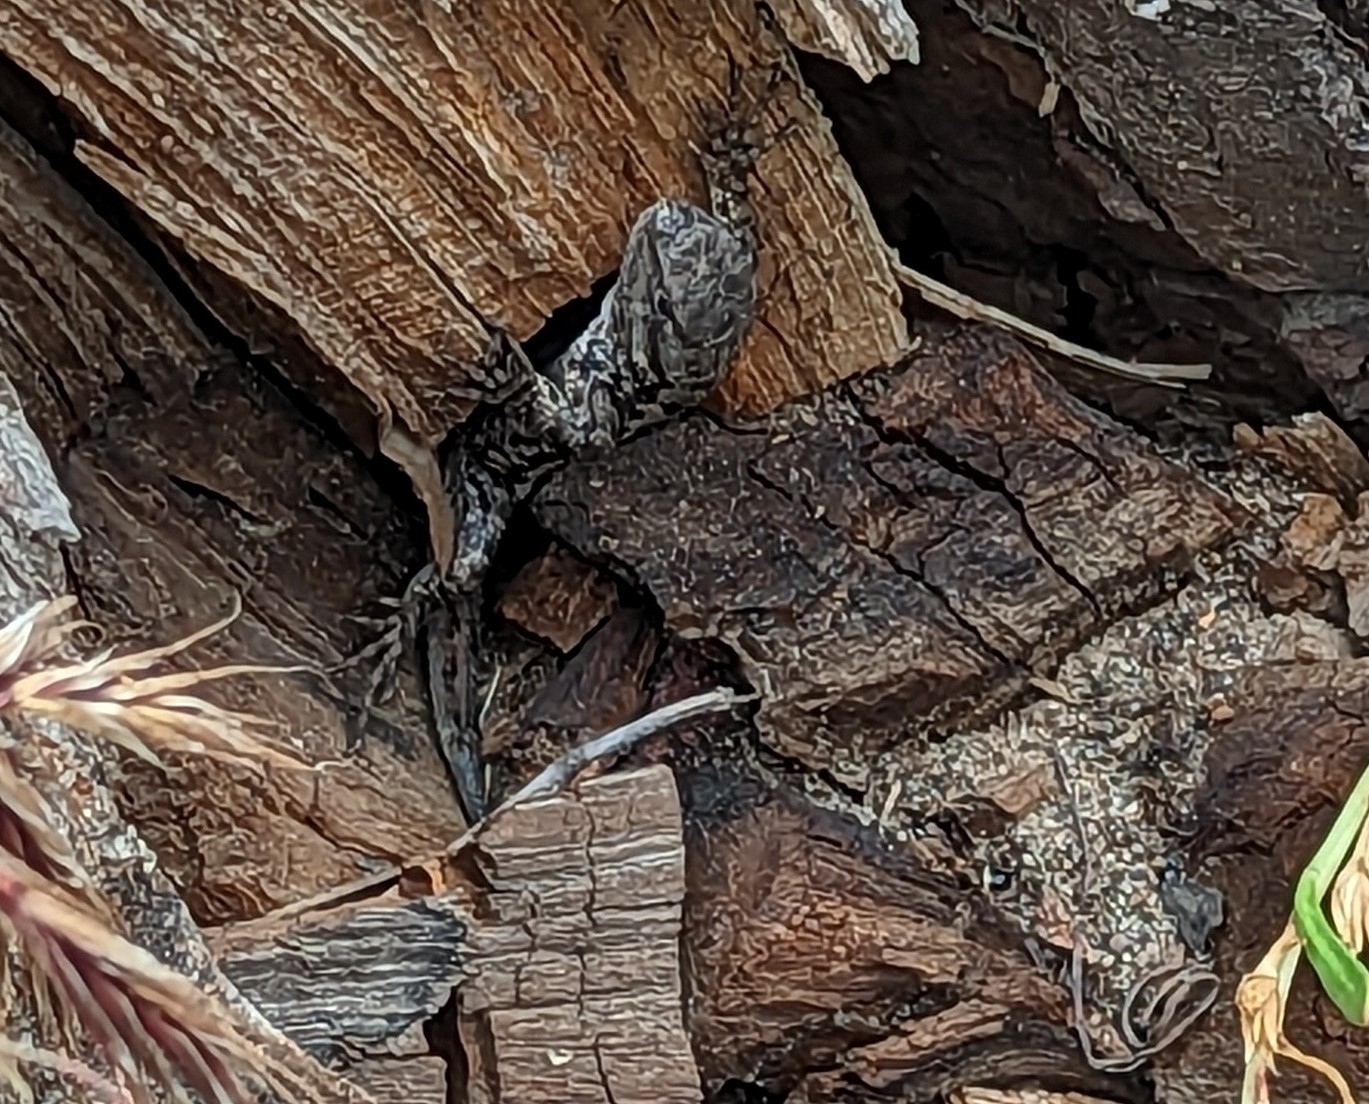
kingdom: Animalia
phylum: Chordata
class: Squamata
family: Phrynosomatidae
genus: Sceloporus
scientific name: Sceloporus occidentalis
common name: Western fence lizard
